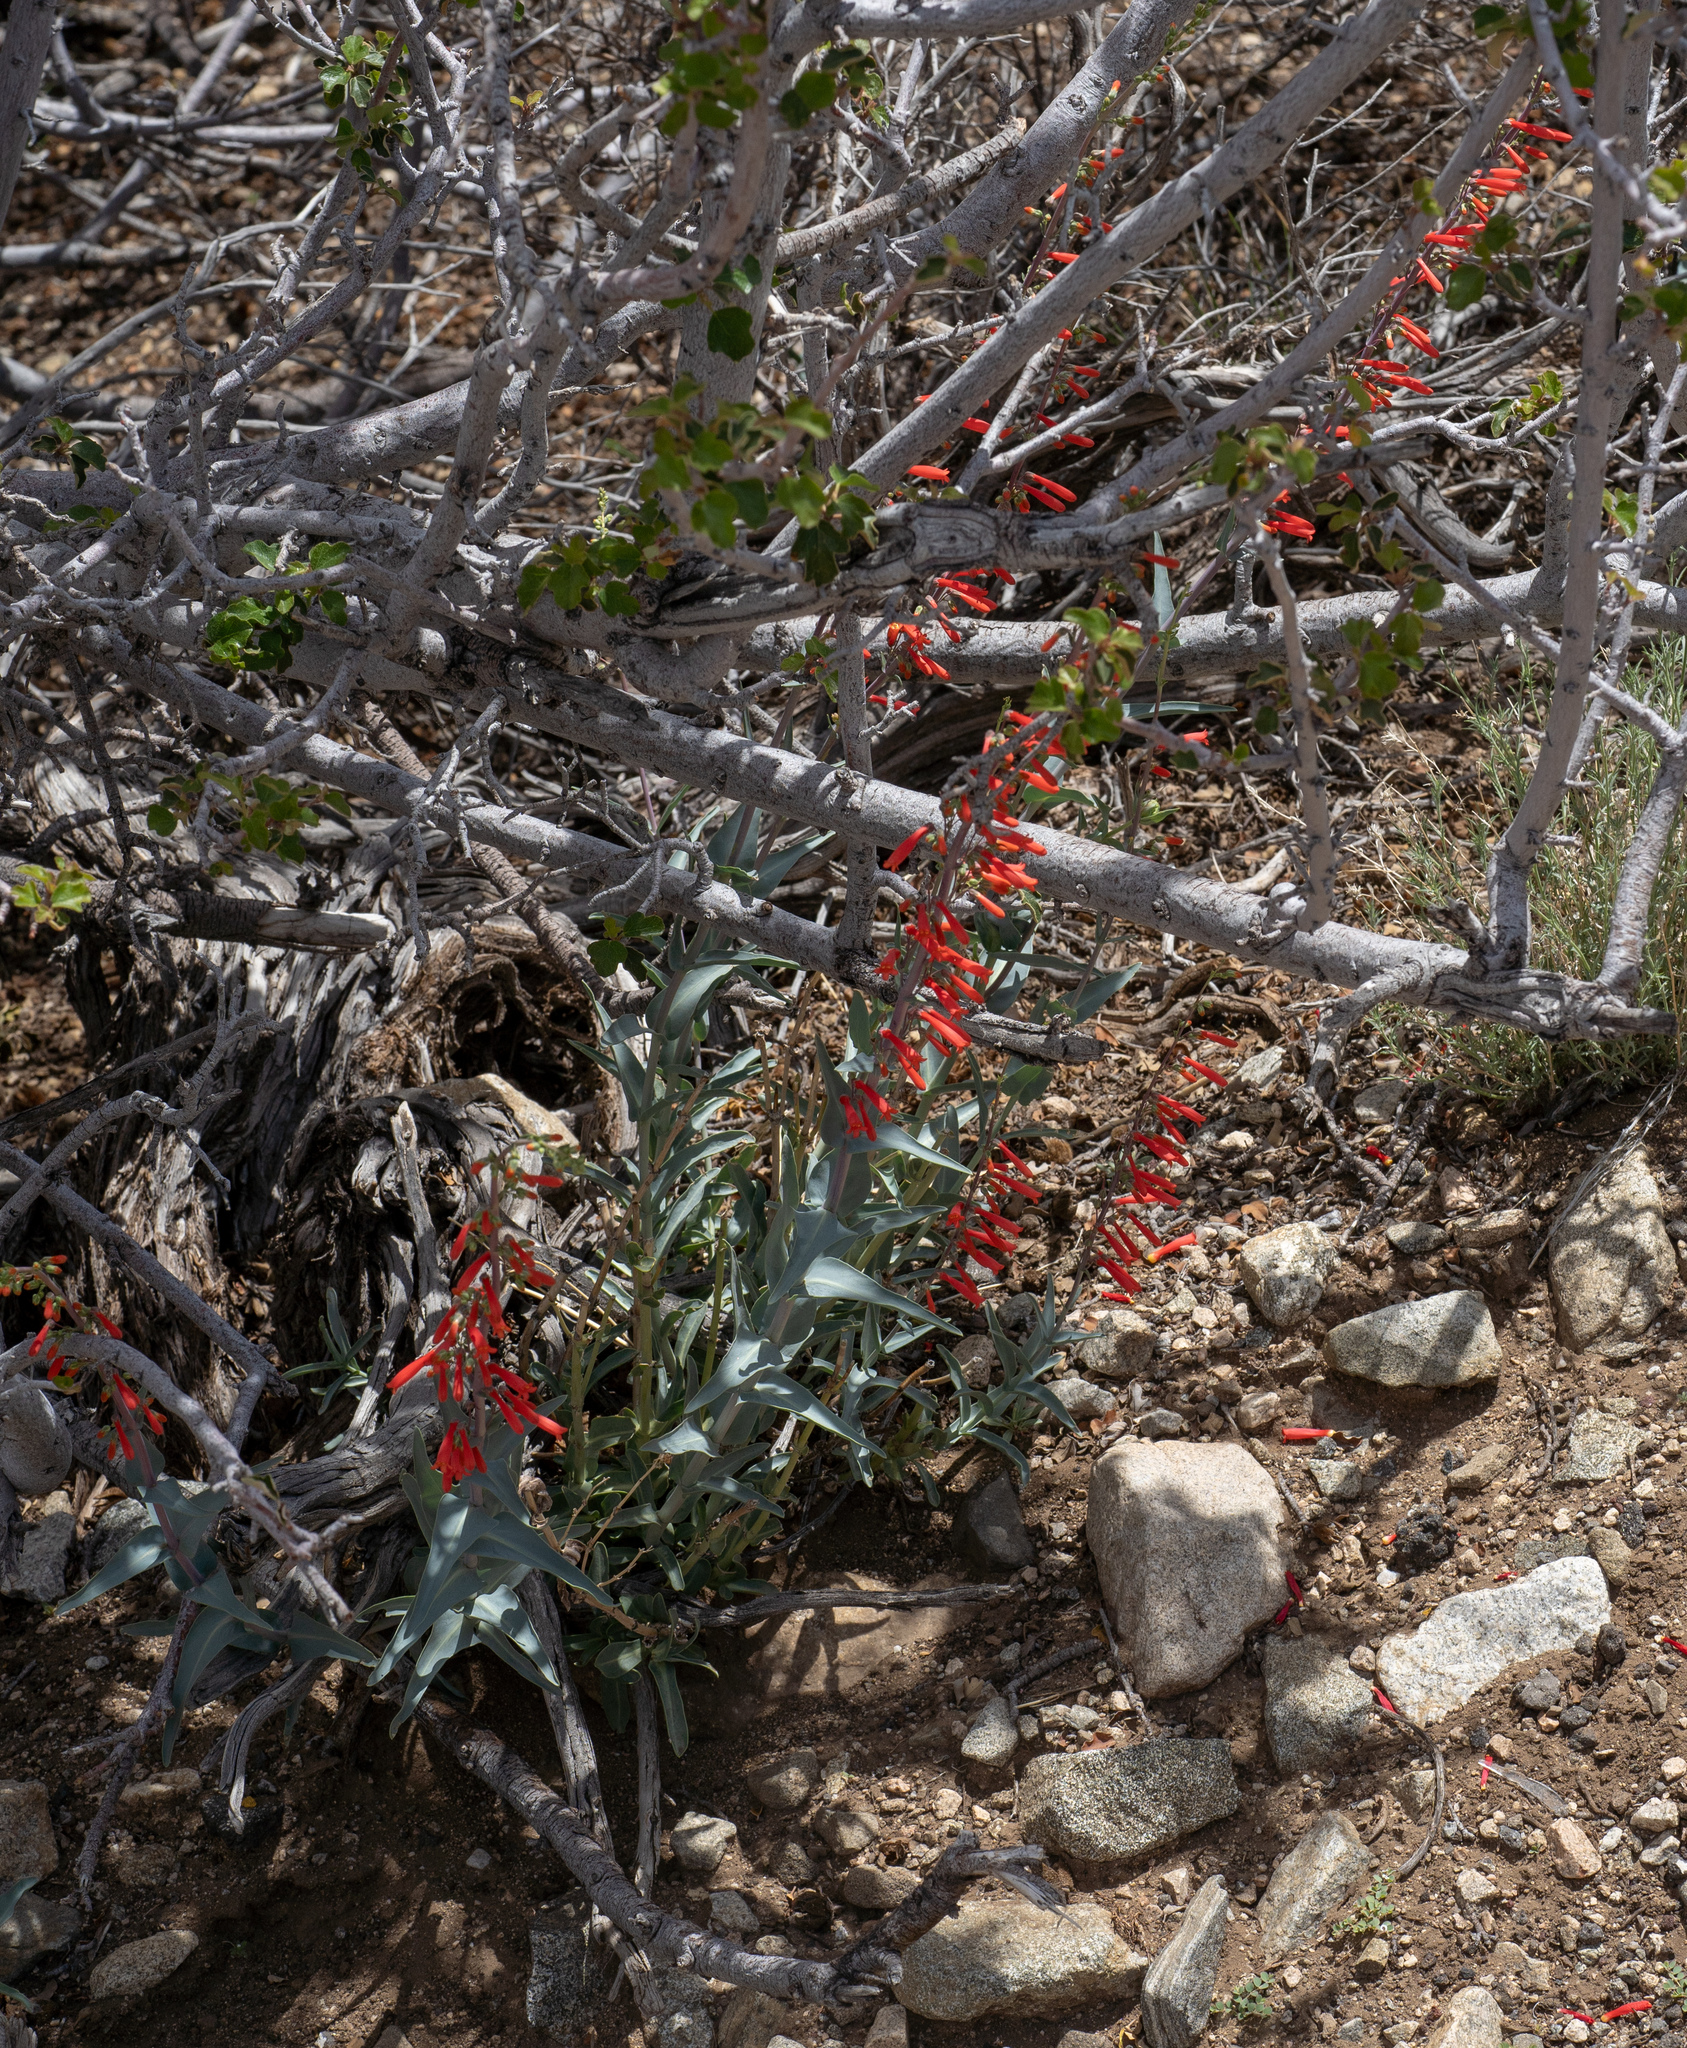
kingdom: Plantae
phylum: Tracheophyta
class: Magnoliopsida
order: Lamiales
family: Plantaginaceae
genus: Penstemon
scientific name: Penstemon centranthifolius
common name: Scarlet bugler
